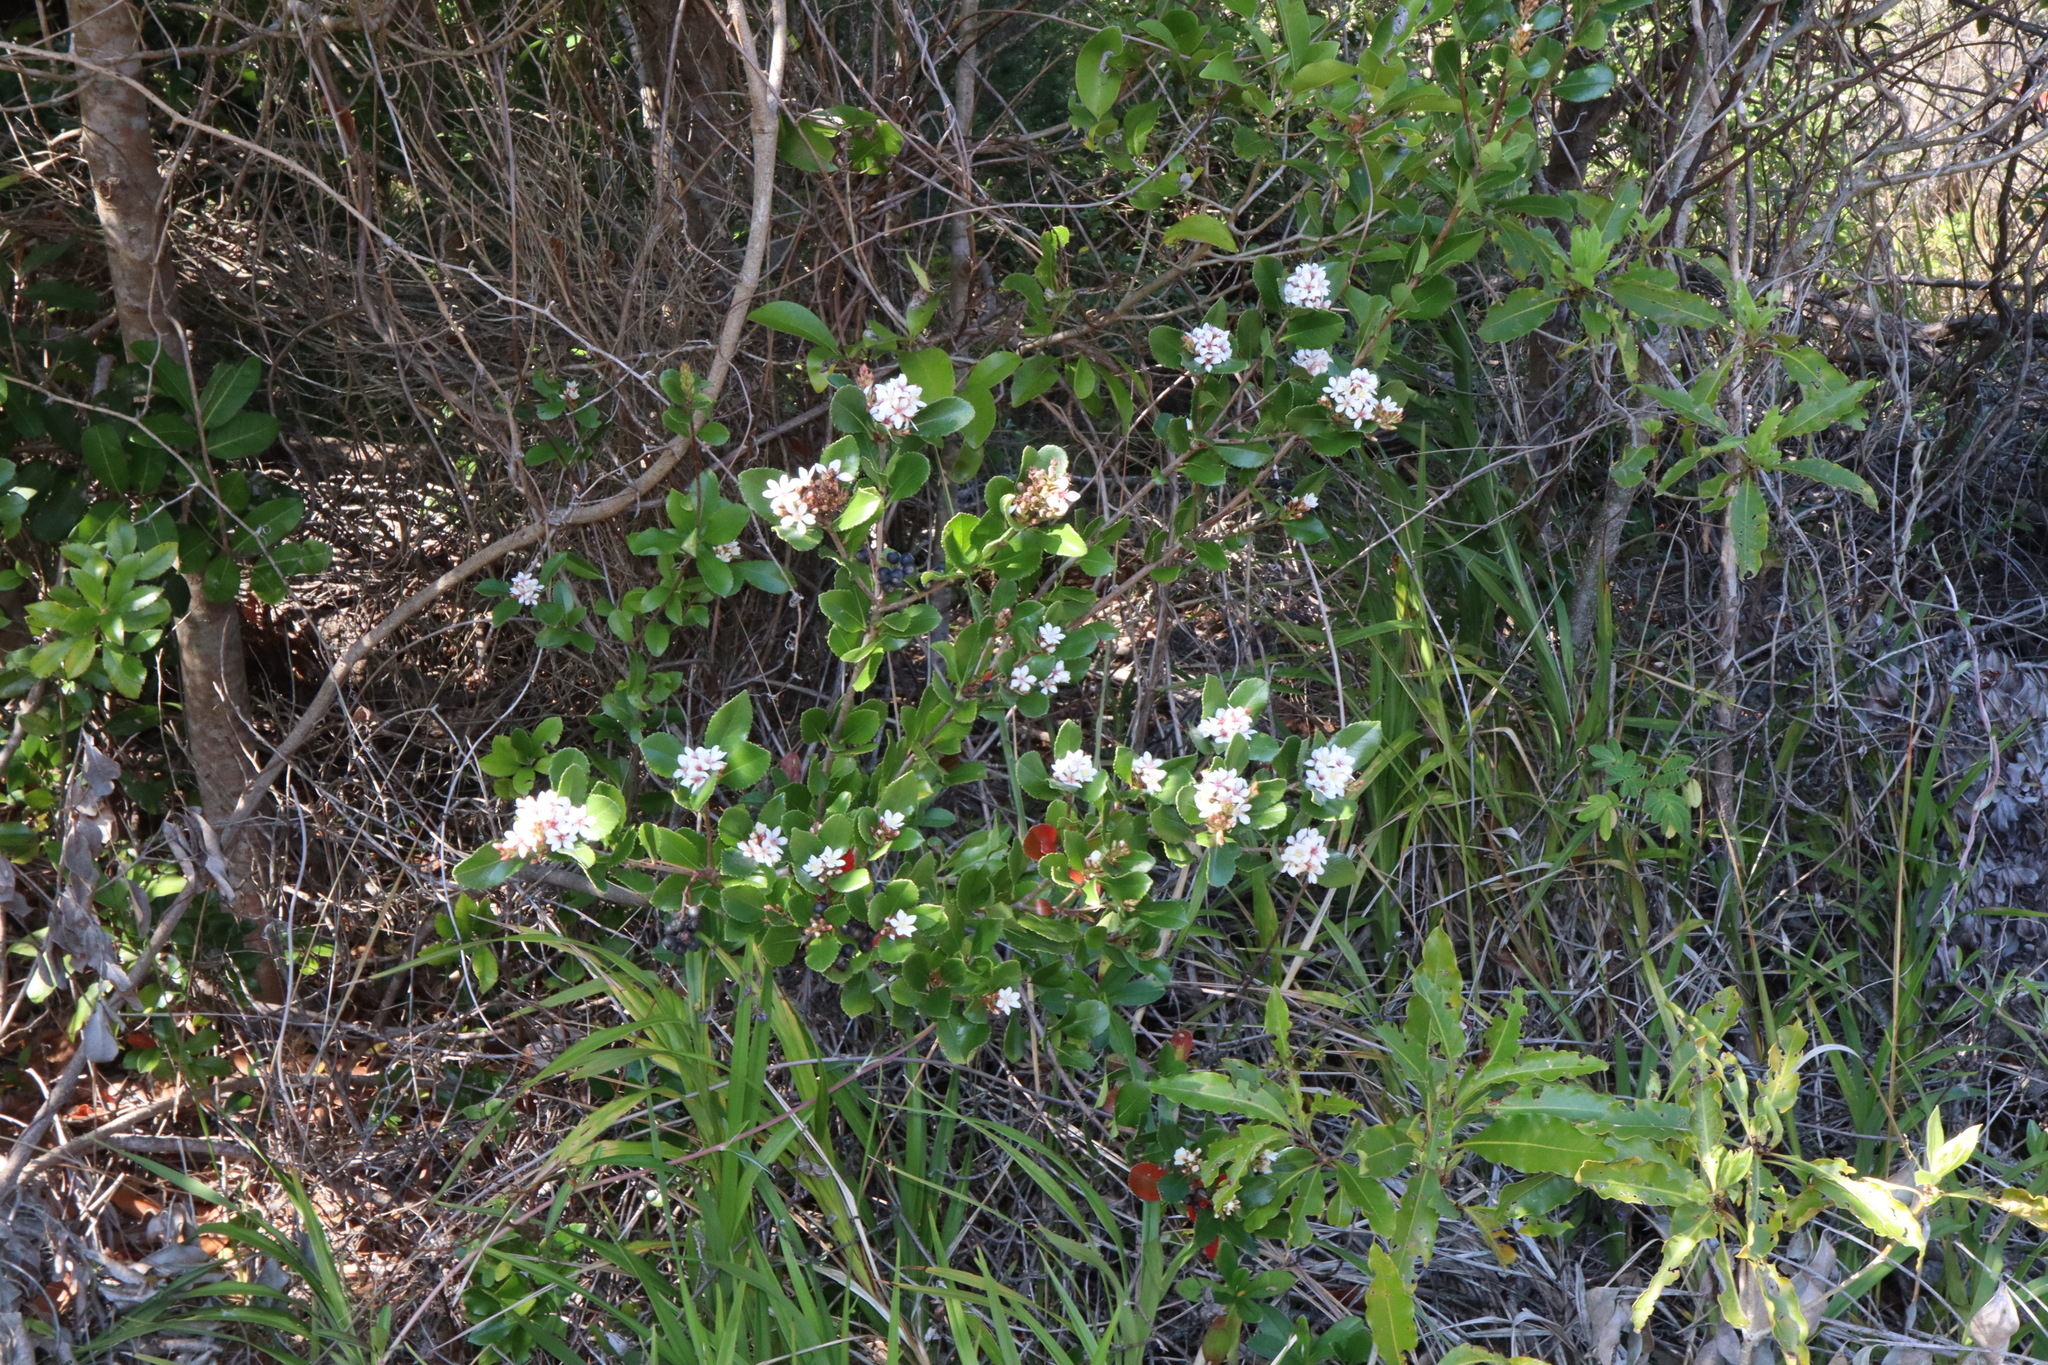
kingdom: Plantae
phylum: Tracheophyta
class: Magnoliopsida
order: Rosales
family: Rosaceae
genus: Rhaphiolepis
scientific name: Rhaphiolepis indica
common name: India-hawthorn
